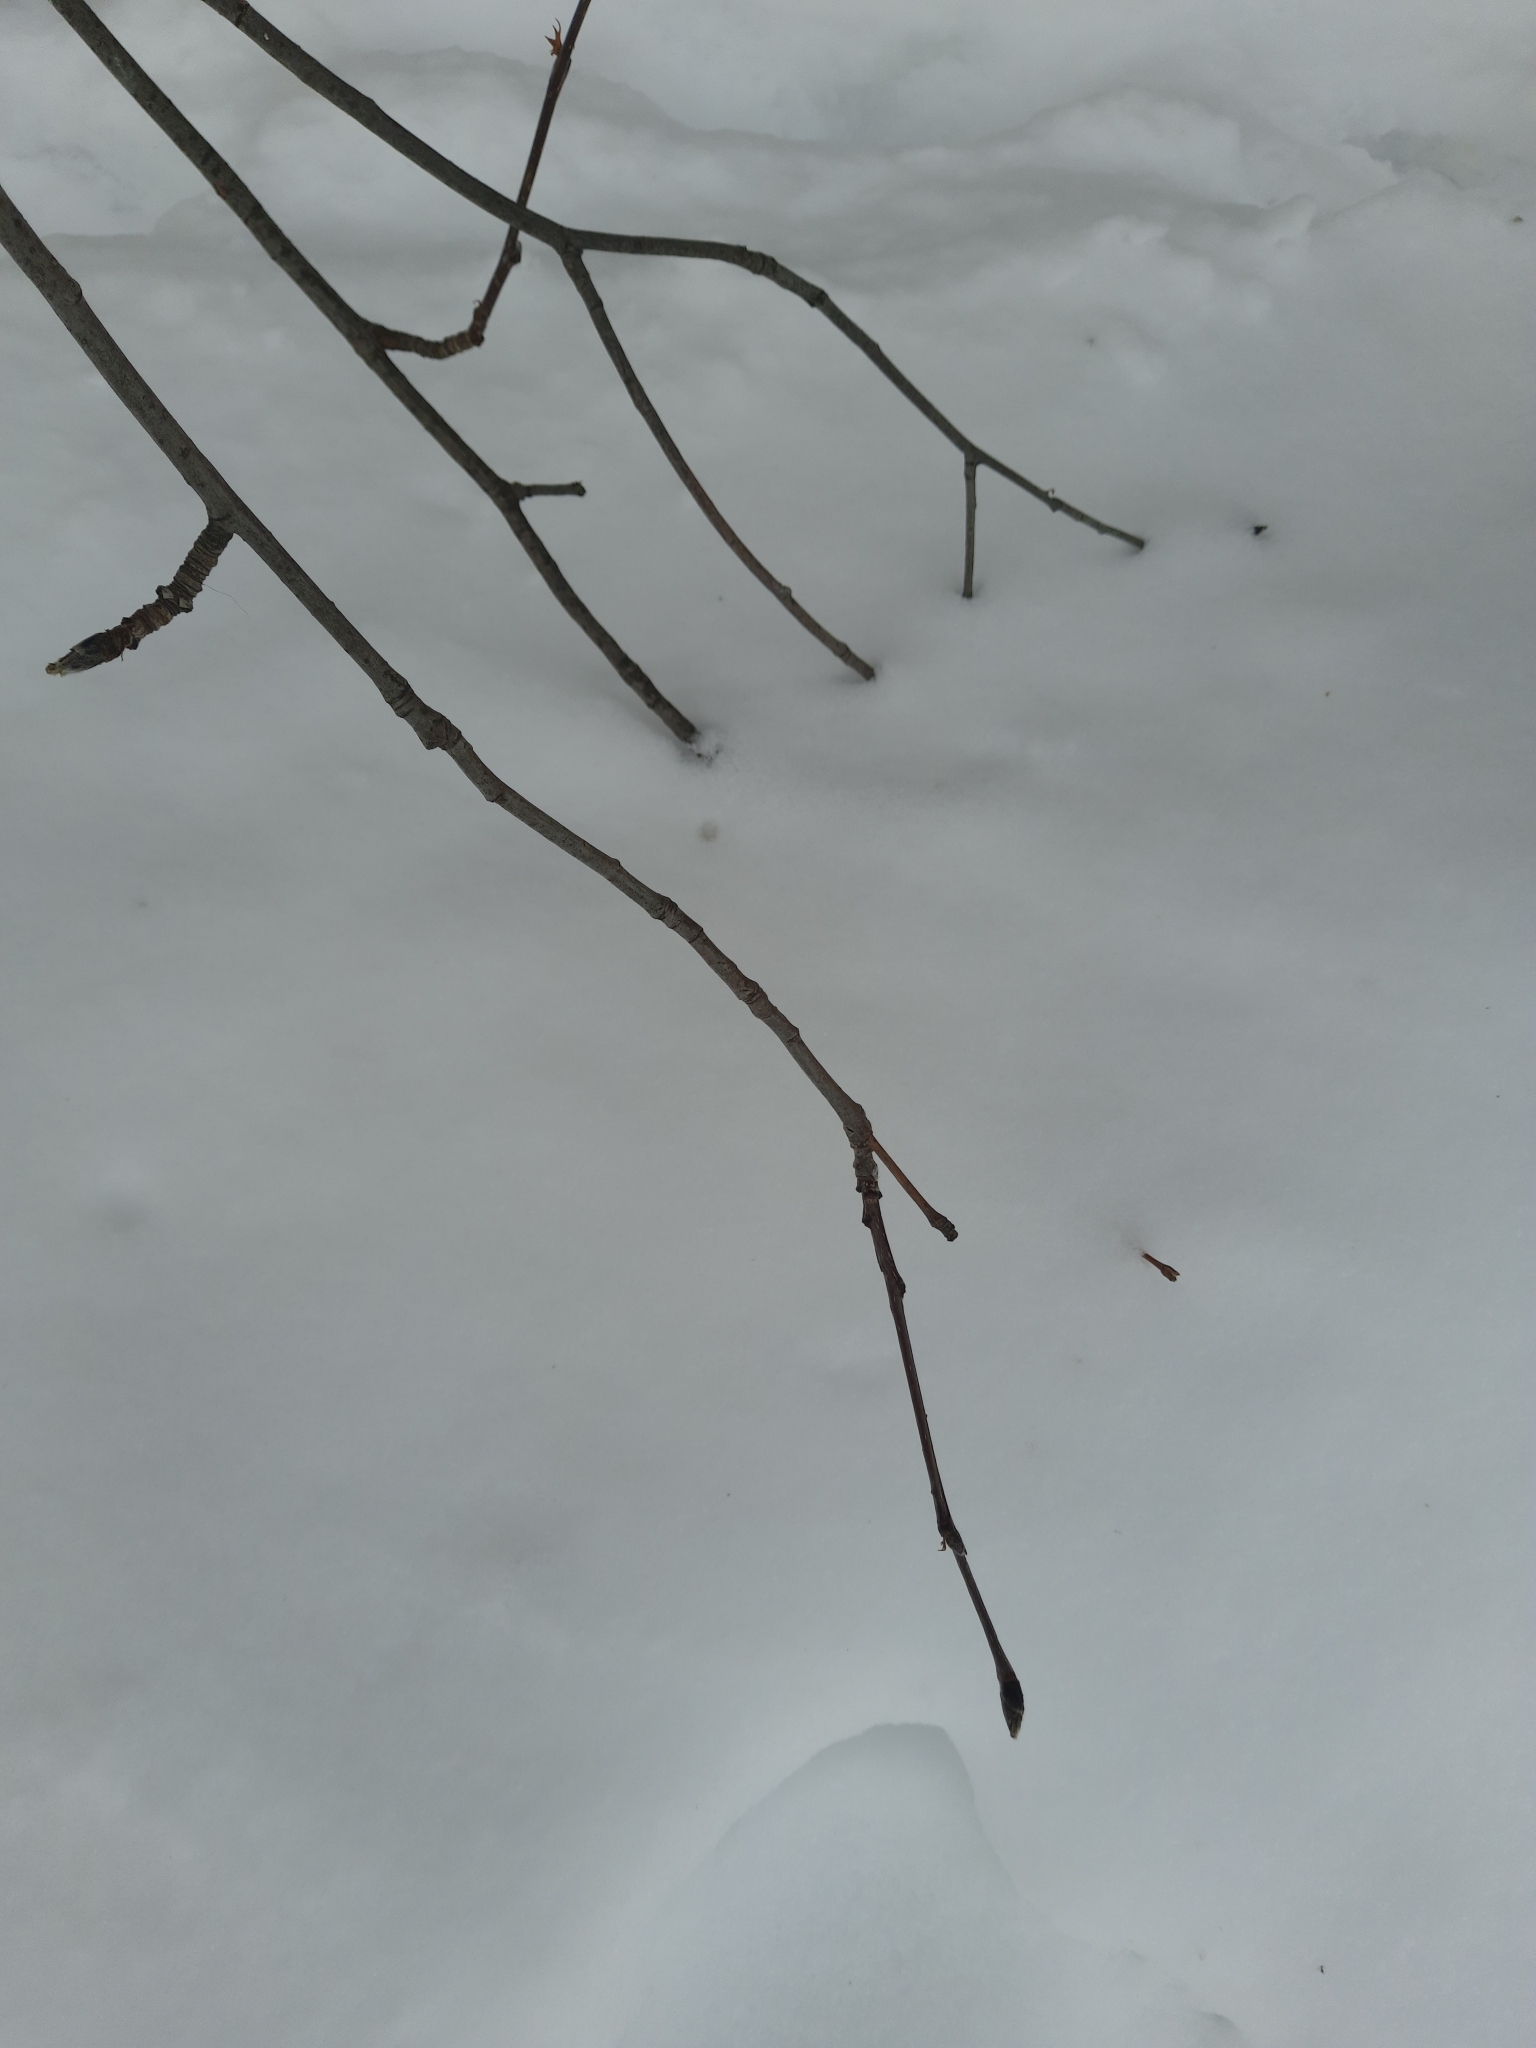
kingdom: Plantae
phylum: Tracheophyta
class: Magnoliopsida
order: Rosales
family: Rosaceae
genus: Sorbus
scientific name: Sorbus aucuparia
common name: Rowan
